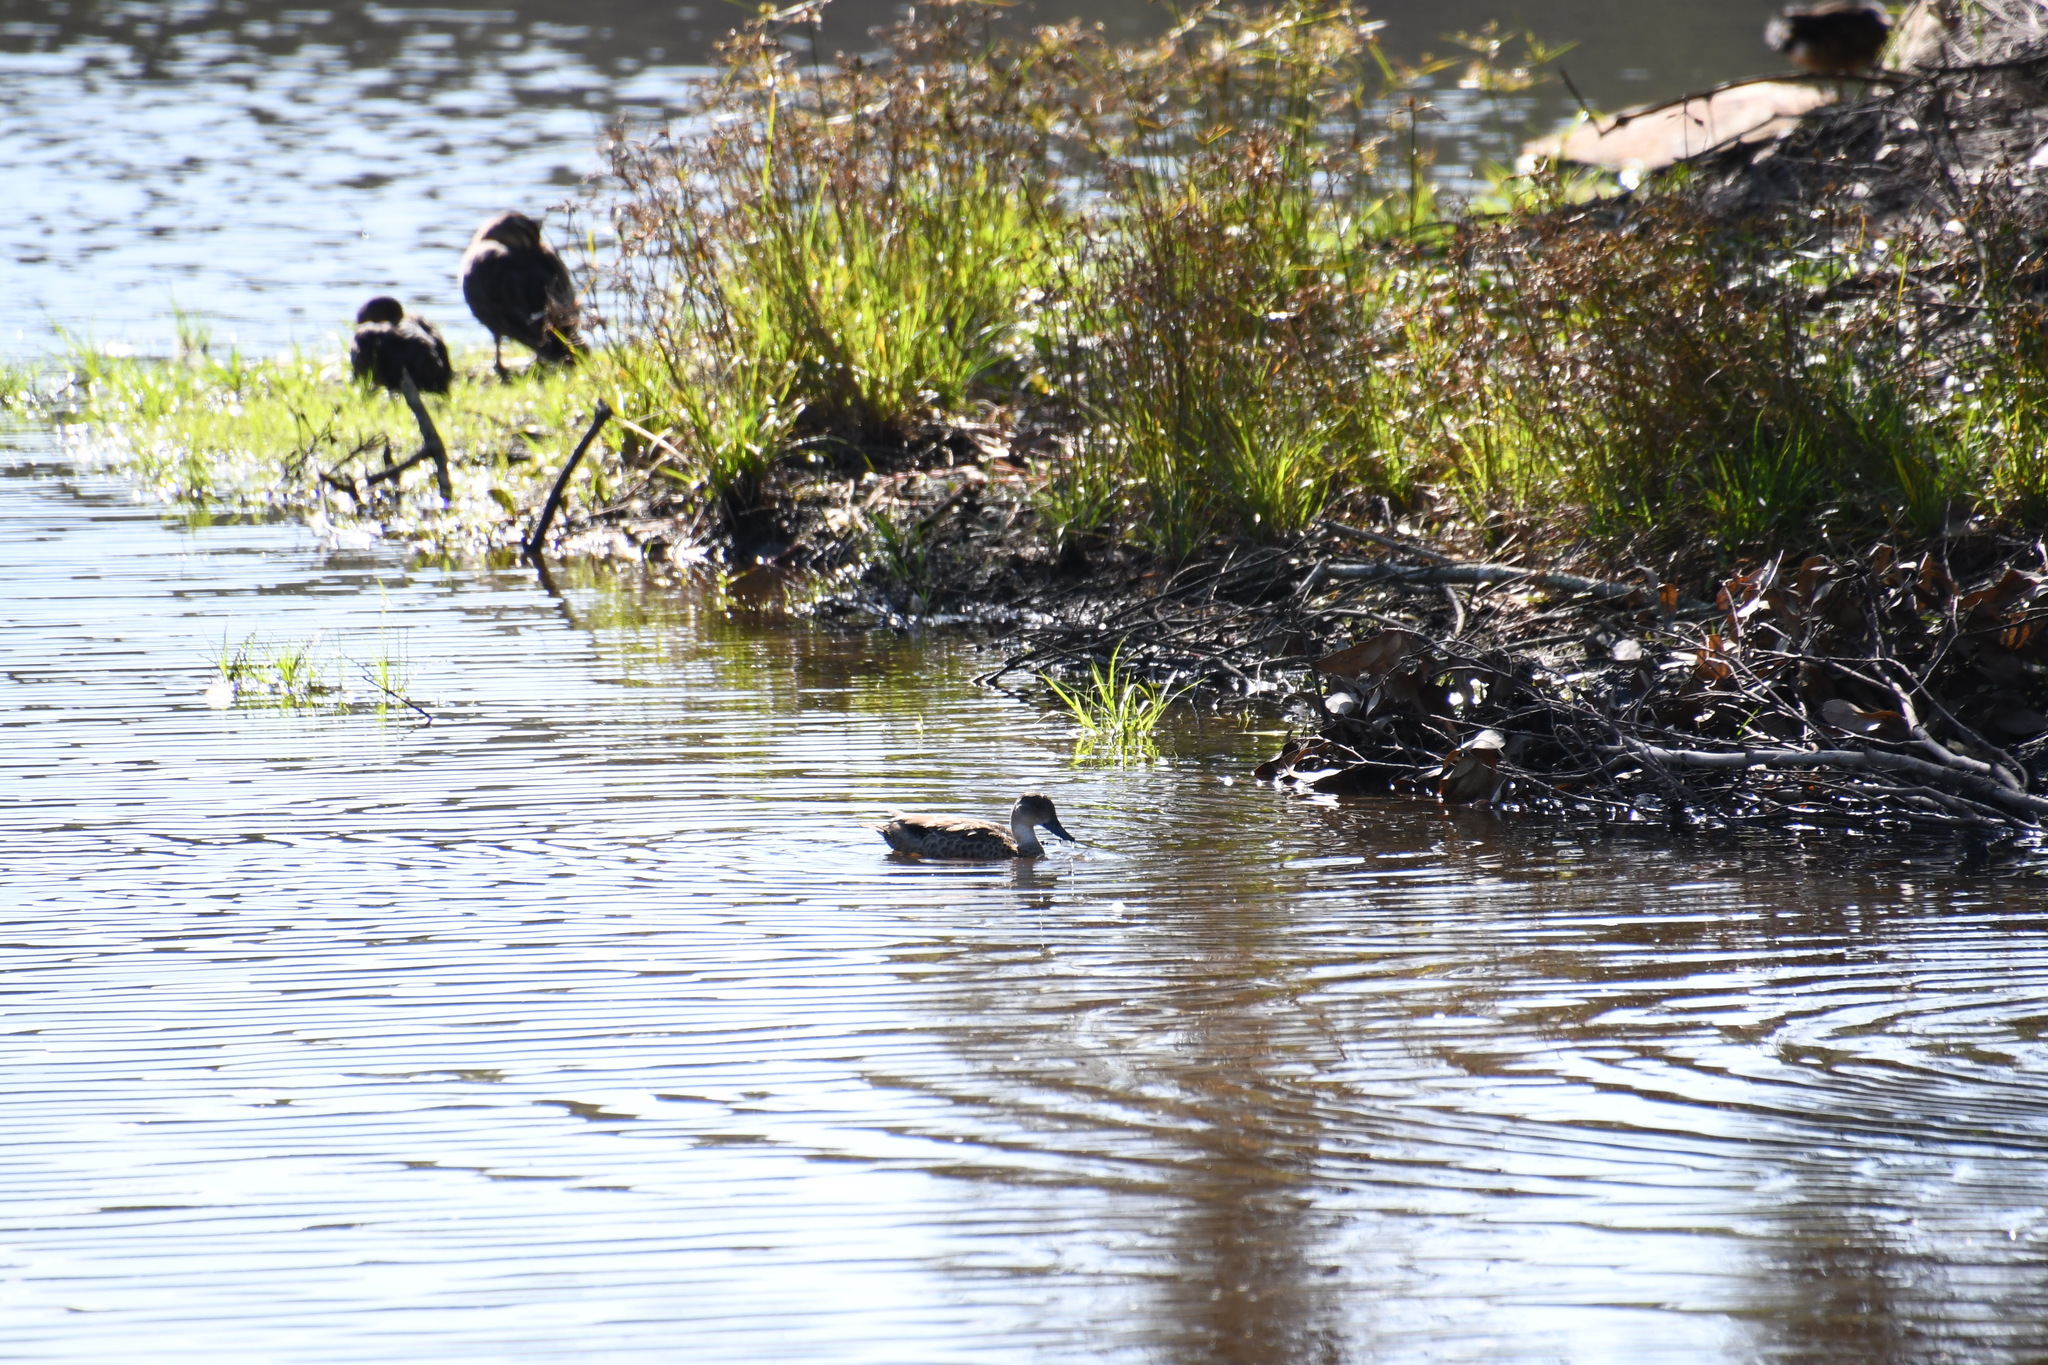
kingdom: Animalia
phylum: Chordata
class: Aves
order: Anseriformes
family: Anatidae
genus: Anas
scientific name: Anas gracilis
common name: Grey teal
